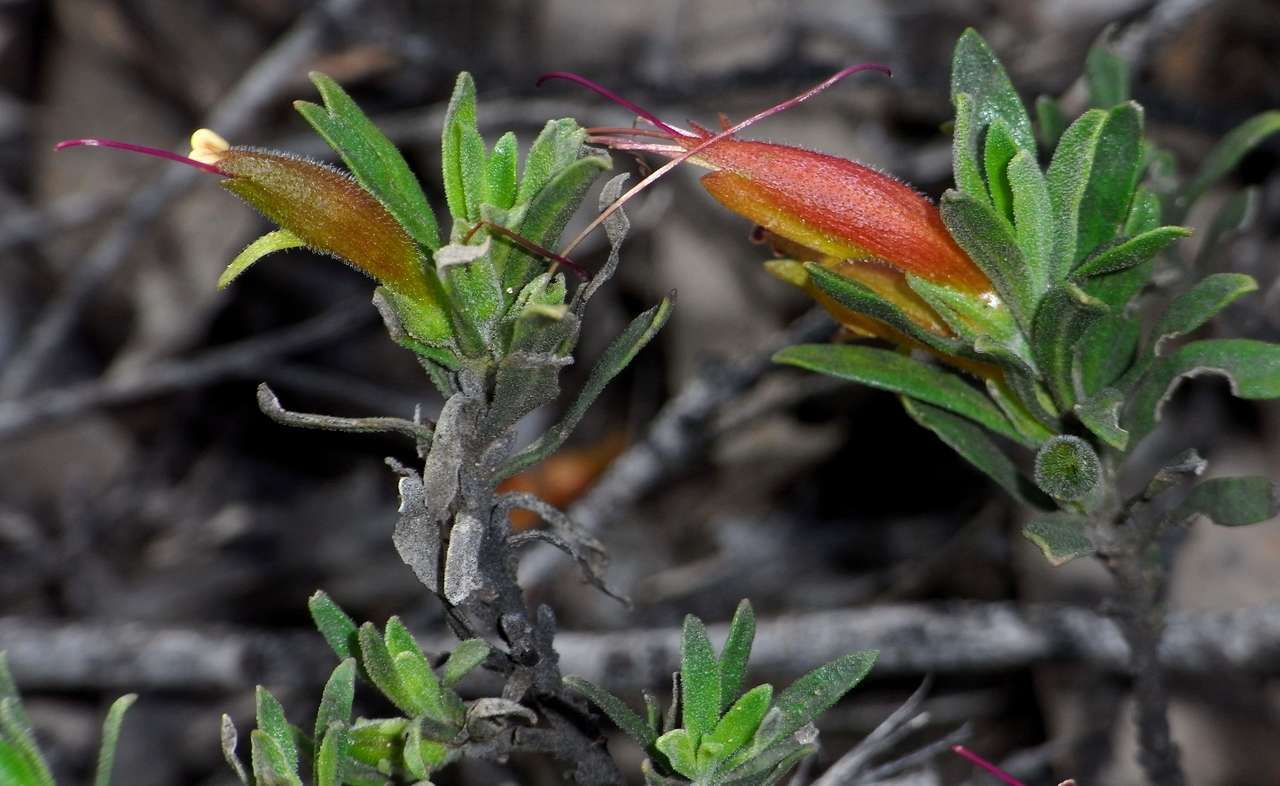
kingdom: Plantae
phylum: Tracheophyta
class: Magnoliopsida
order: Lamiales
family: Scrophulariaceae
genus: Eremophila
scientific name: Eremophila glabra
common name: Black-fuchsia
